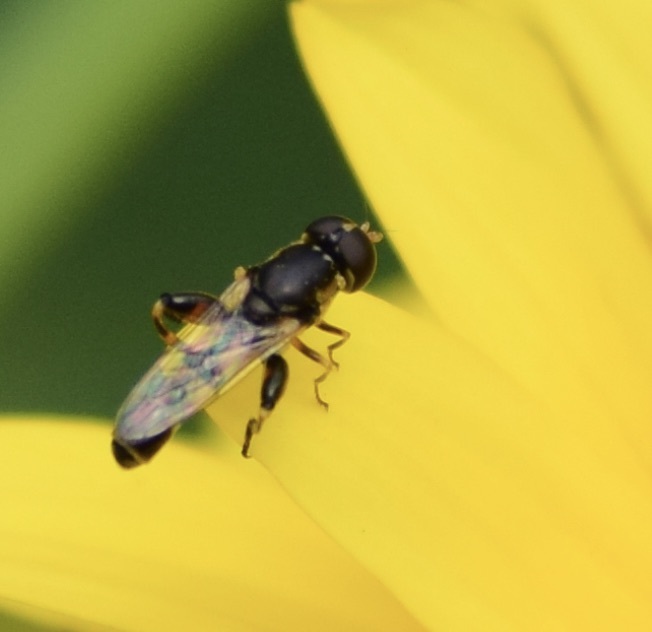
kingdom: Animalia
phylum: Arthropoda
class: Insecta
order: Diptera
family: Syrphidae
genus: Syritta
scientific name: Syritta pipiens
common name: Hover fly
